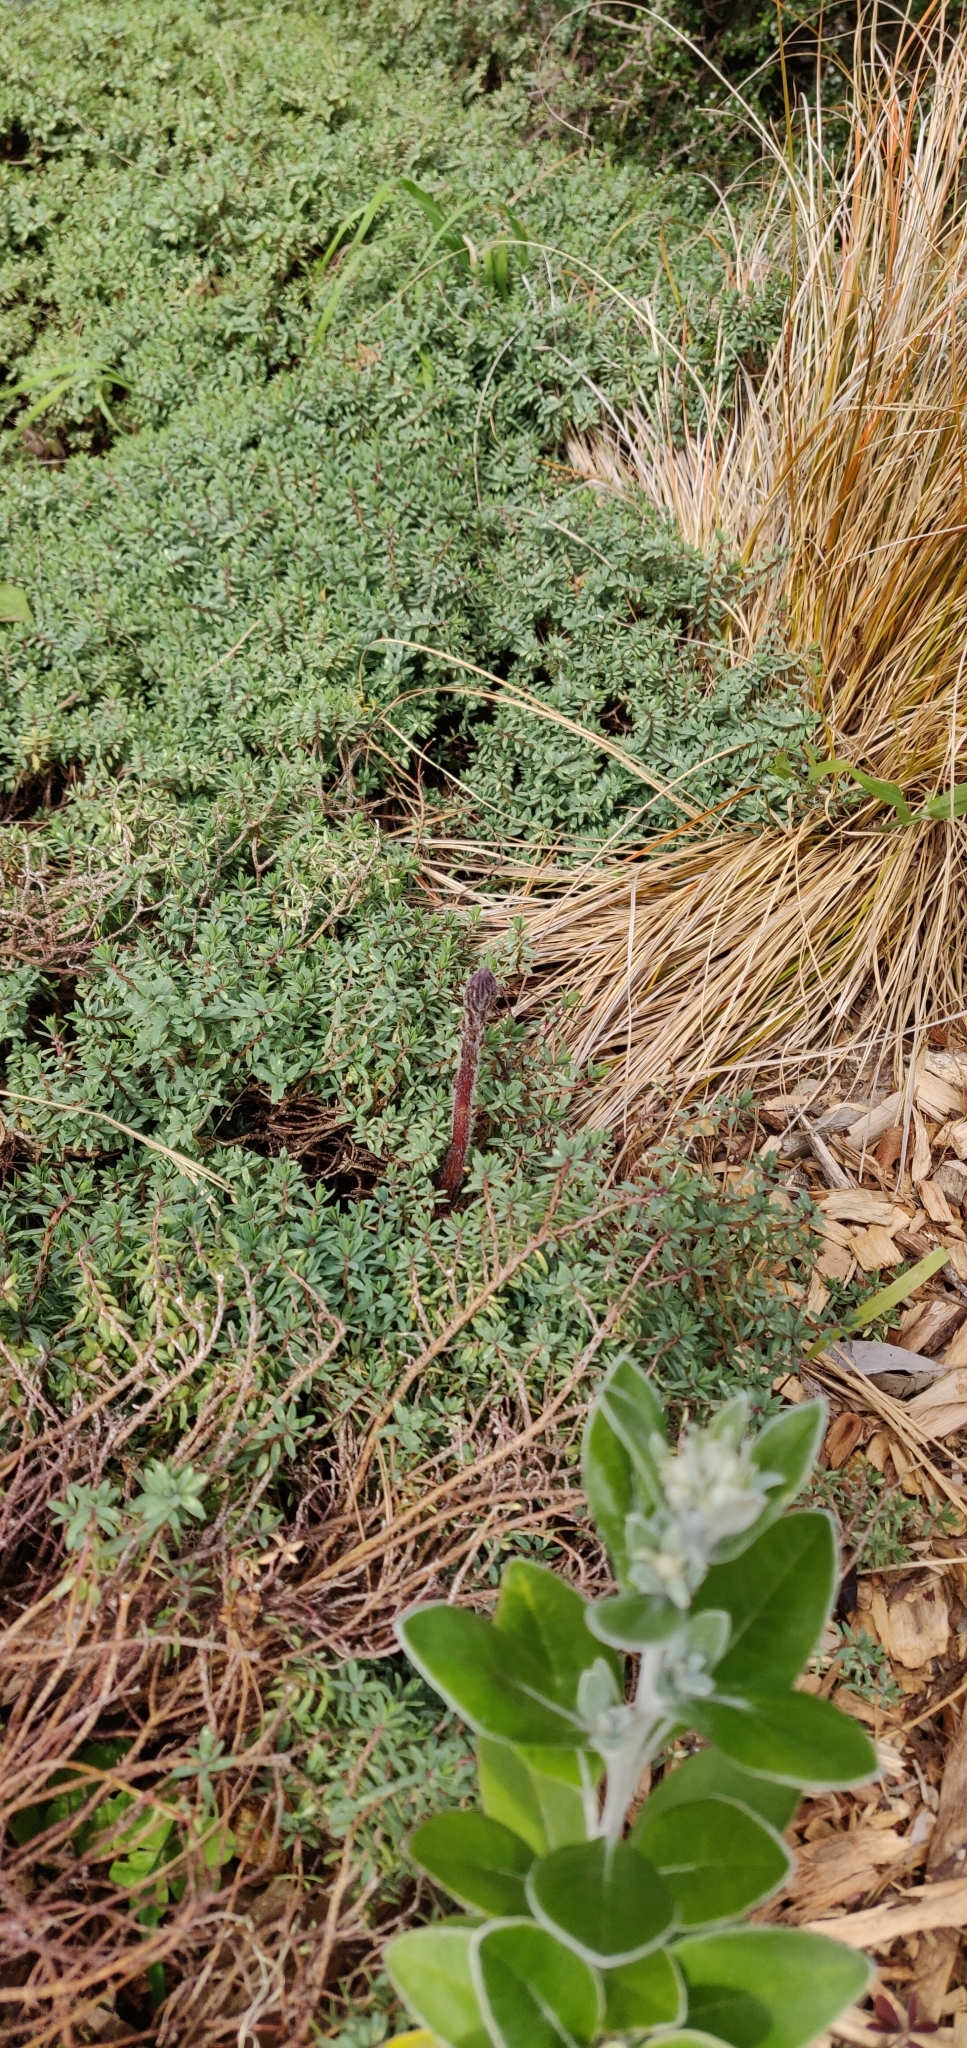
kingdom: Plantae
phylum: Tracheophyta
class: Magnoliopsida
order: Lamiales
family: Orobanchaceae
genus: Orobanche
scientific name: Orobanche minor
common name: Common broomrape
